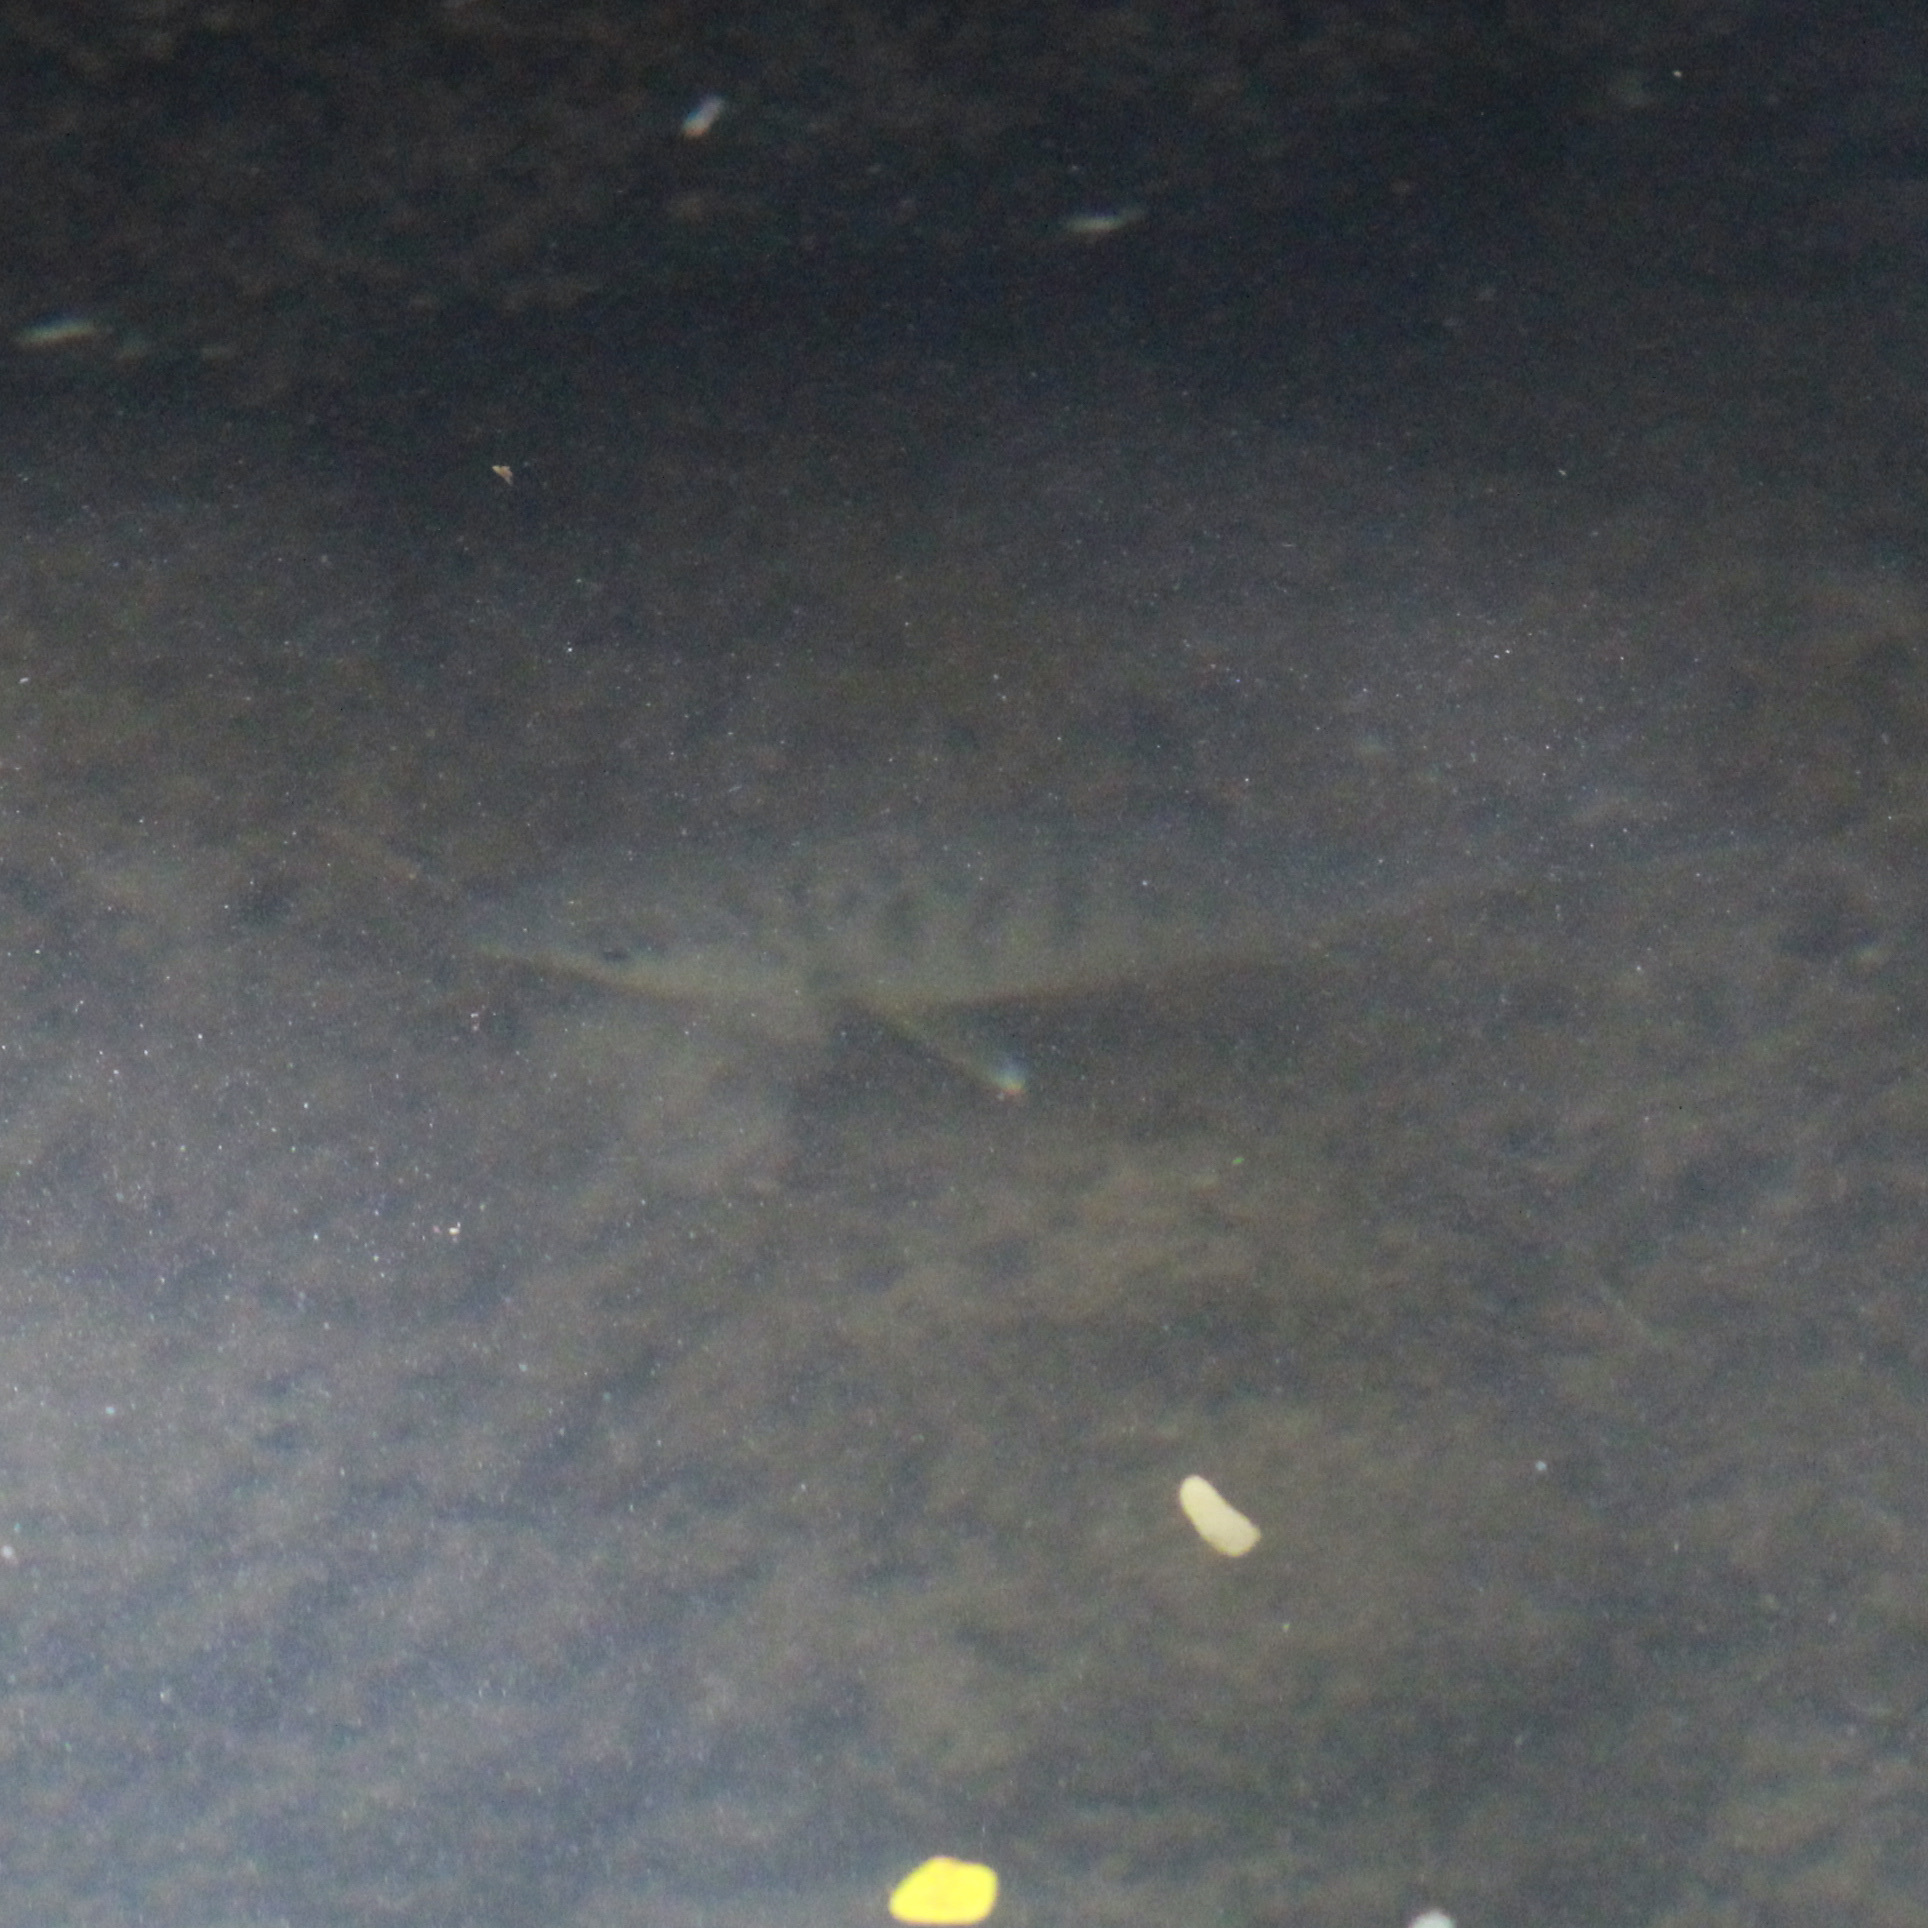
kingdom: Animalia
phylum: Chordata
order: Perciformes
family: Gerreidae
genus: Gerres
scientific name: Gerres cinereus
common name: Hedow
